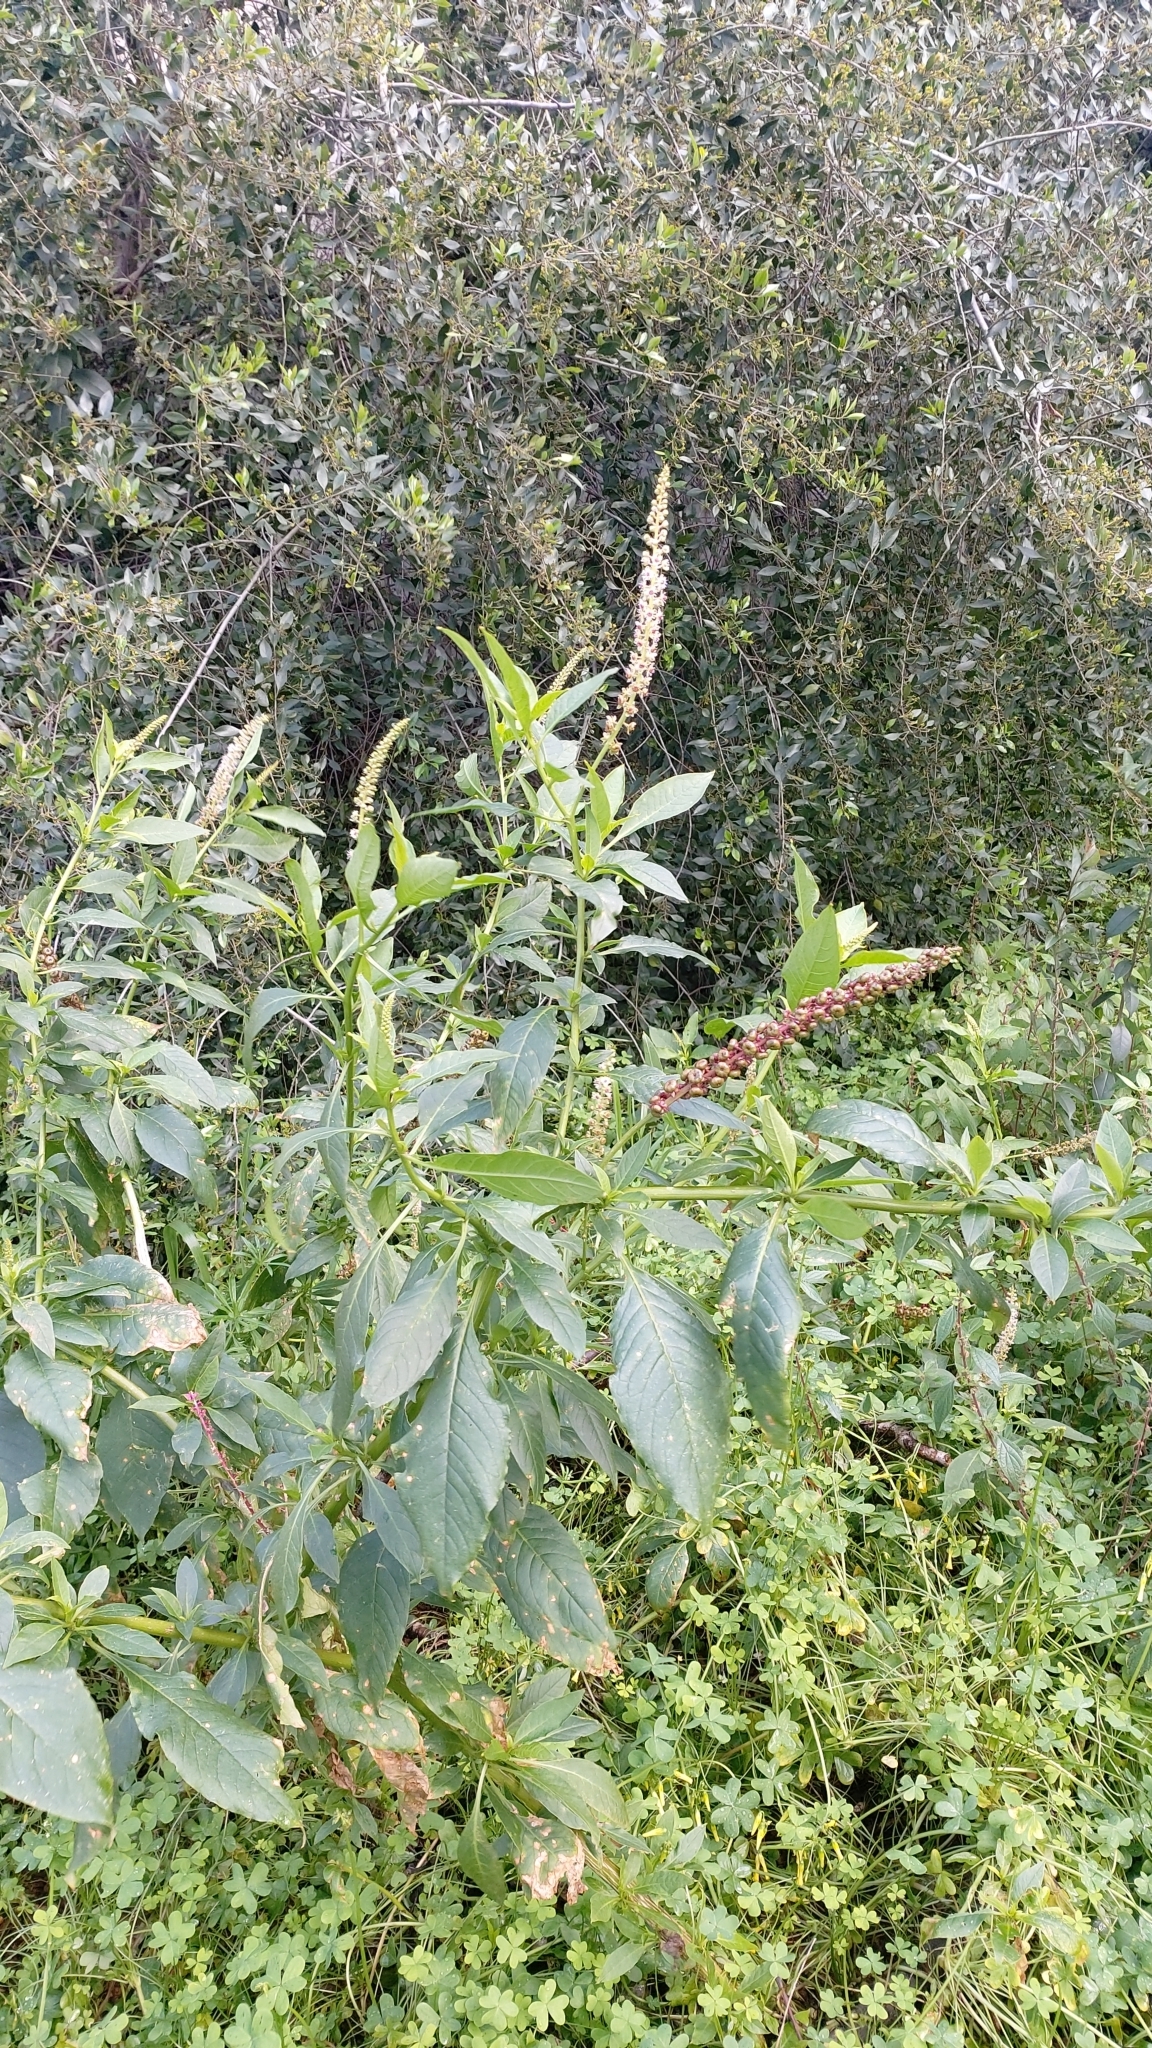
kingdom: Plantae
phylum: Tracheophyta
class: Magnoliopsida
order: Caryophyllales
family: Phytolaccaceae
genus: Phytolacca
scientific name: Phytolacca heterotepala
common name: Mexican pokeweed
